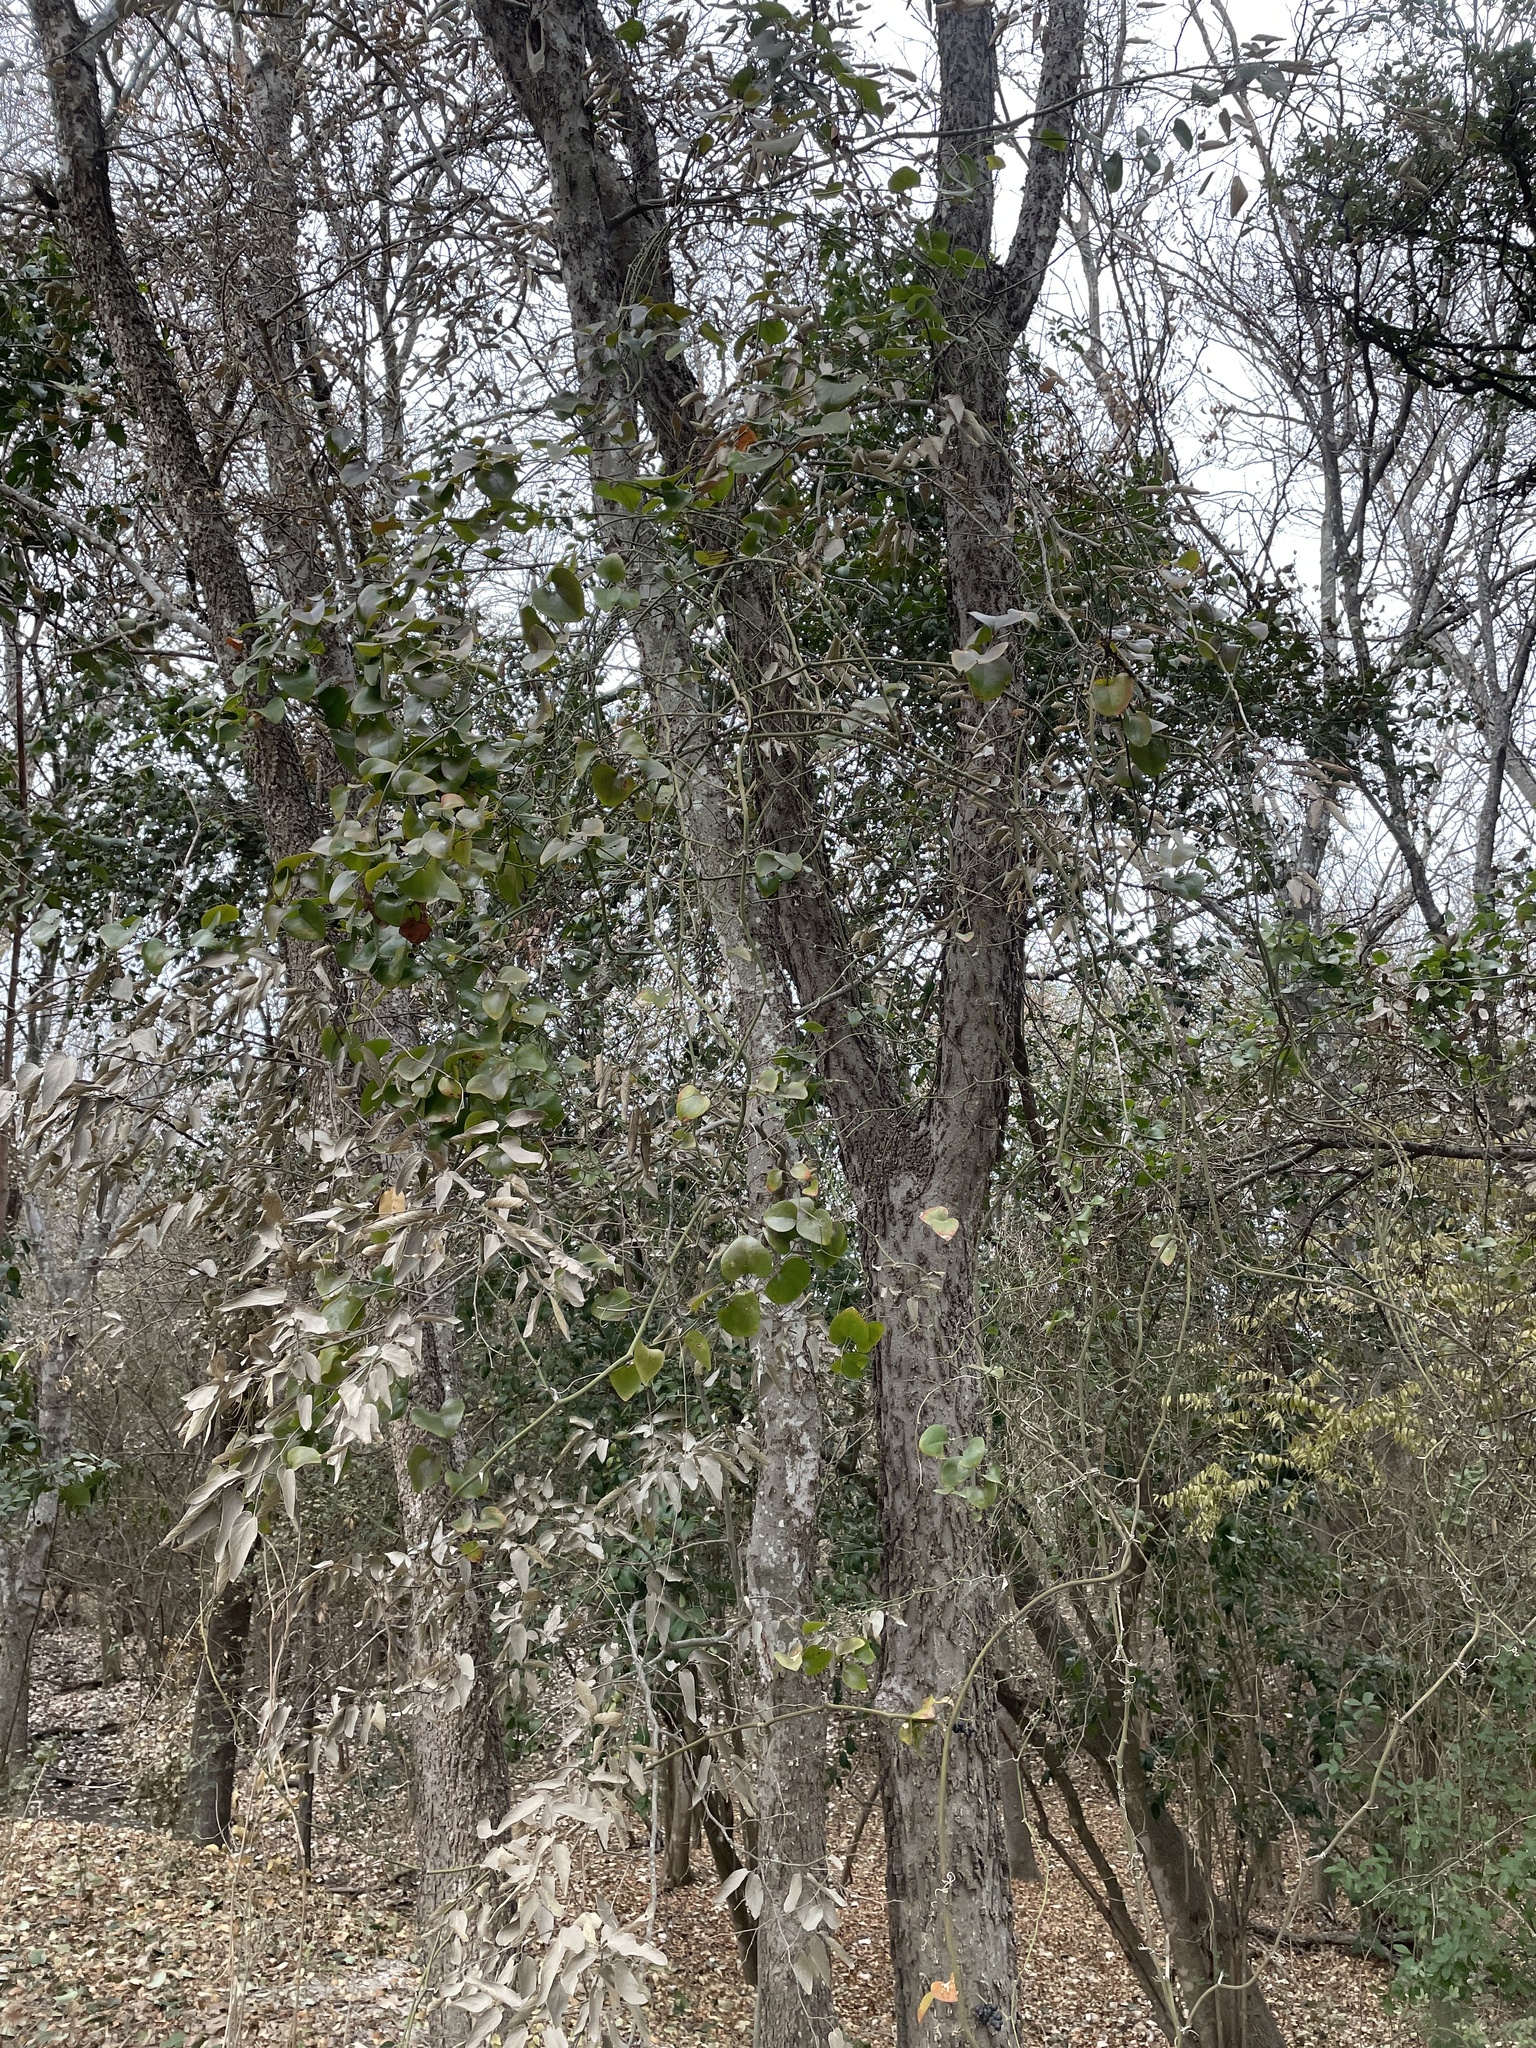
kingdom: Plantae
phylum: Tracheophyta
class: Liliopsida
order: Liliales
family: Smilacaceae
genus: Smilax
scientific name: Smilax bona-nox
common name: Catbrier
